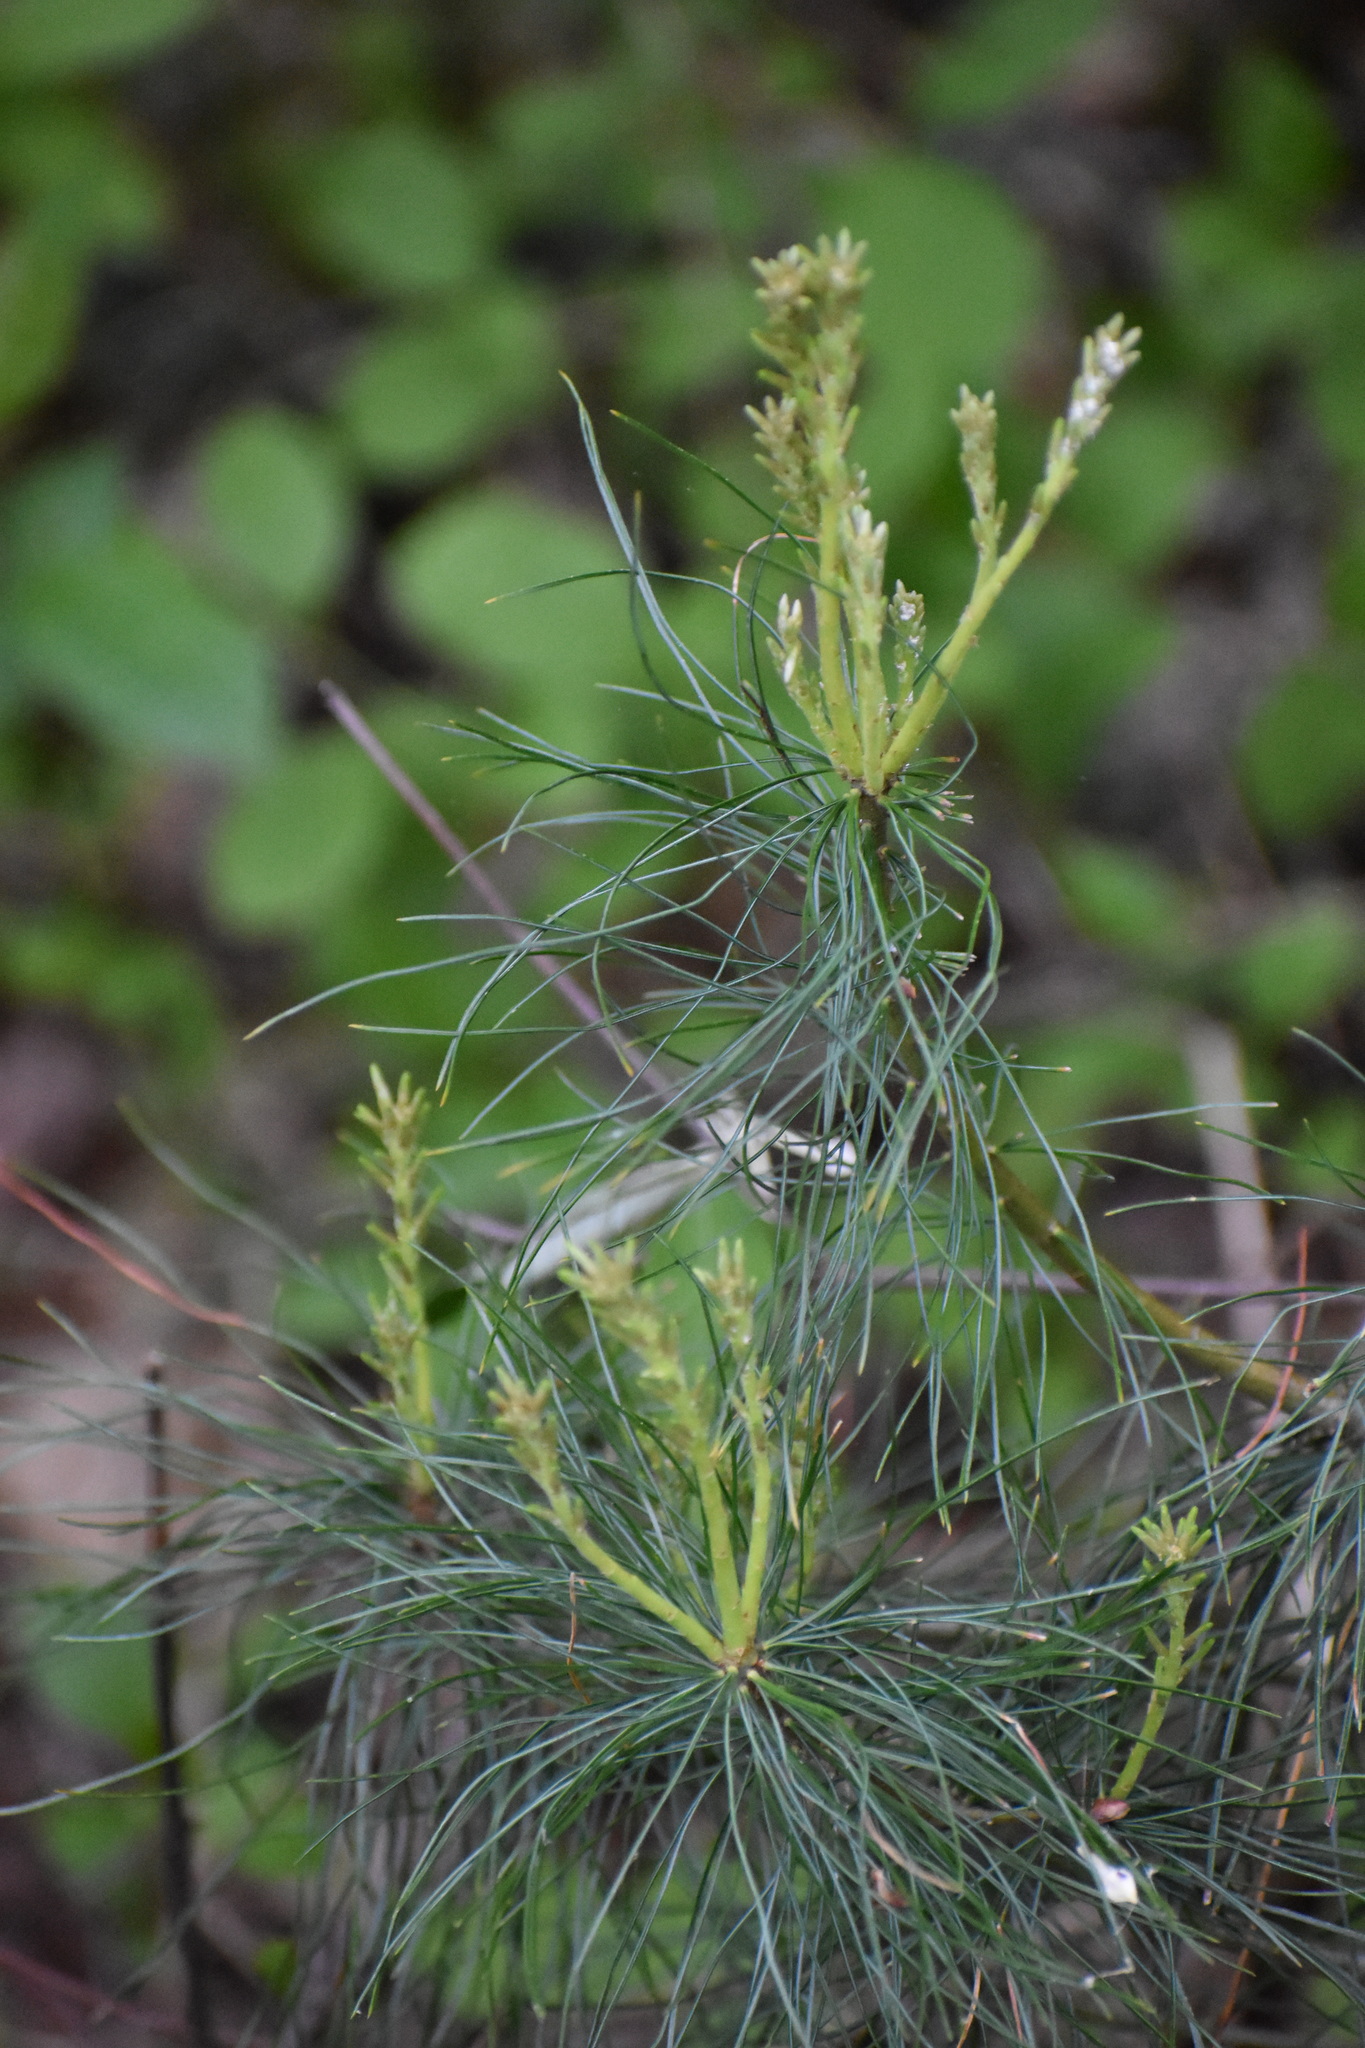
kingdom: Plantae
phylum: Tracheophyta
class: Pinopsida
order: Pinales
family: Pinaceae
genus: Pinus
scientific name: Pinus strobus
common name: Weymouth pine
